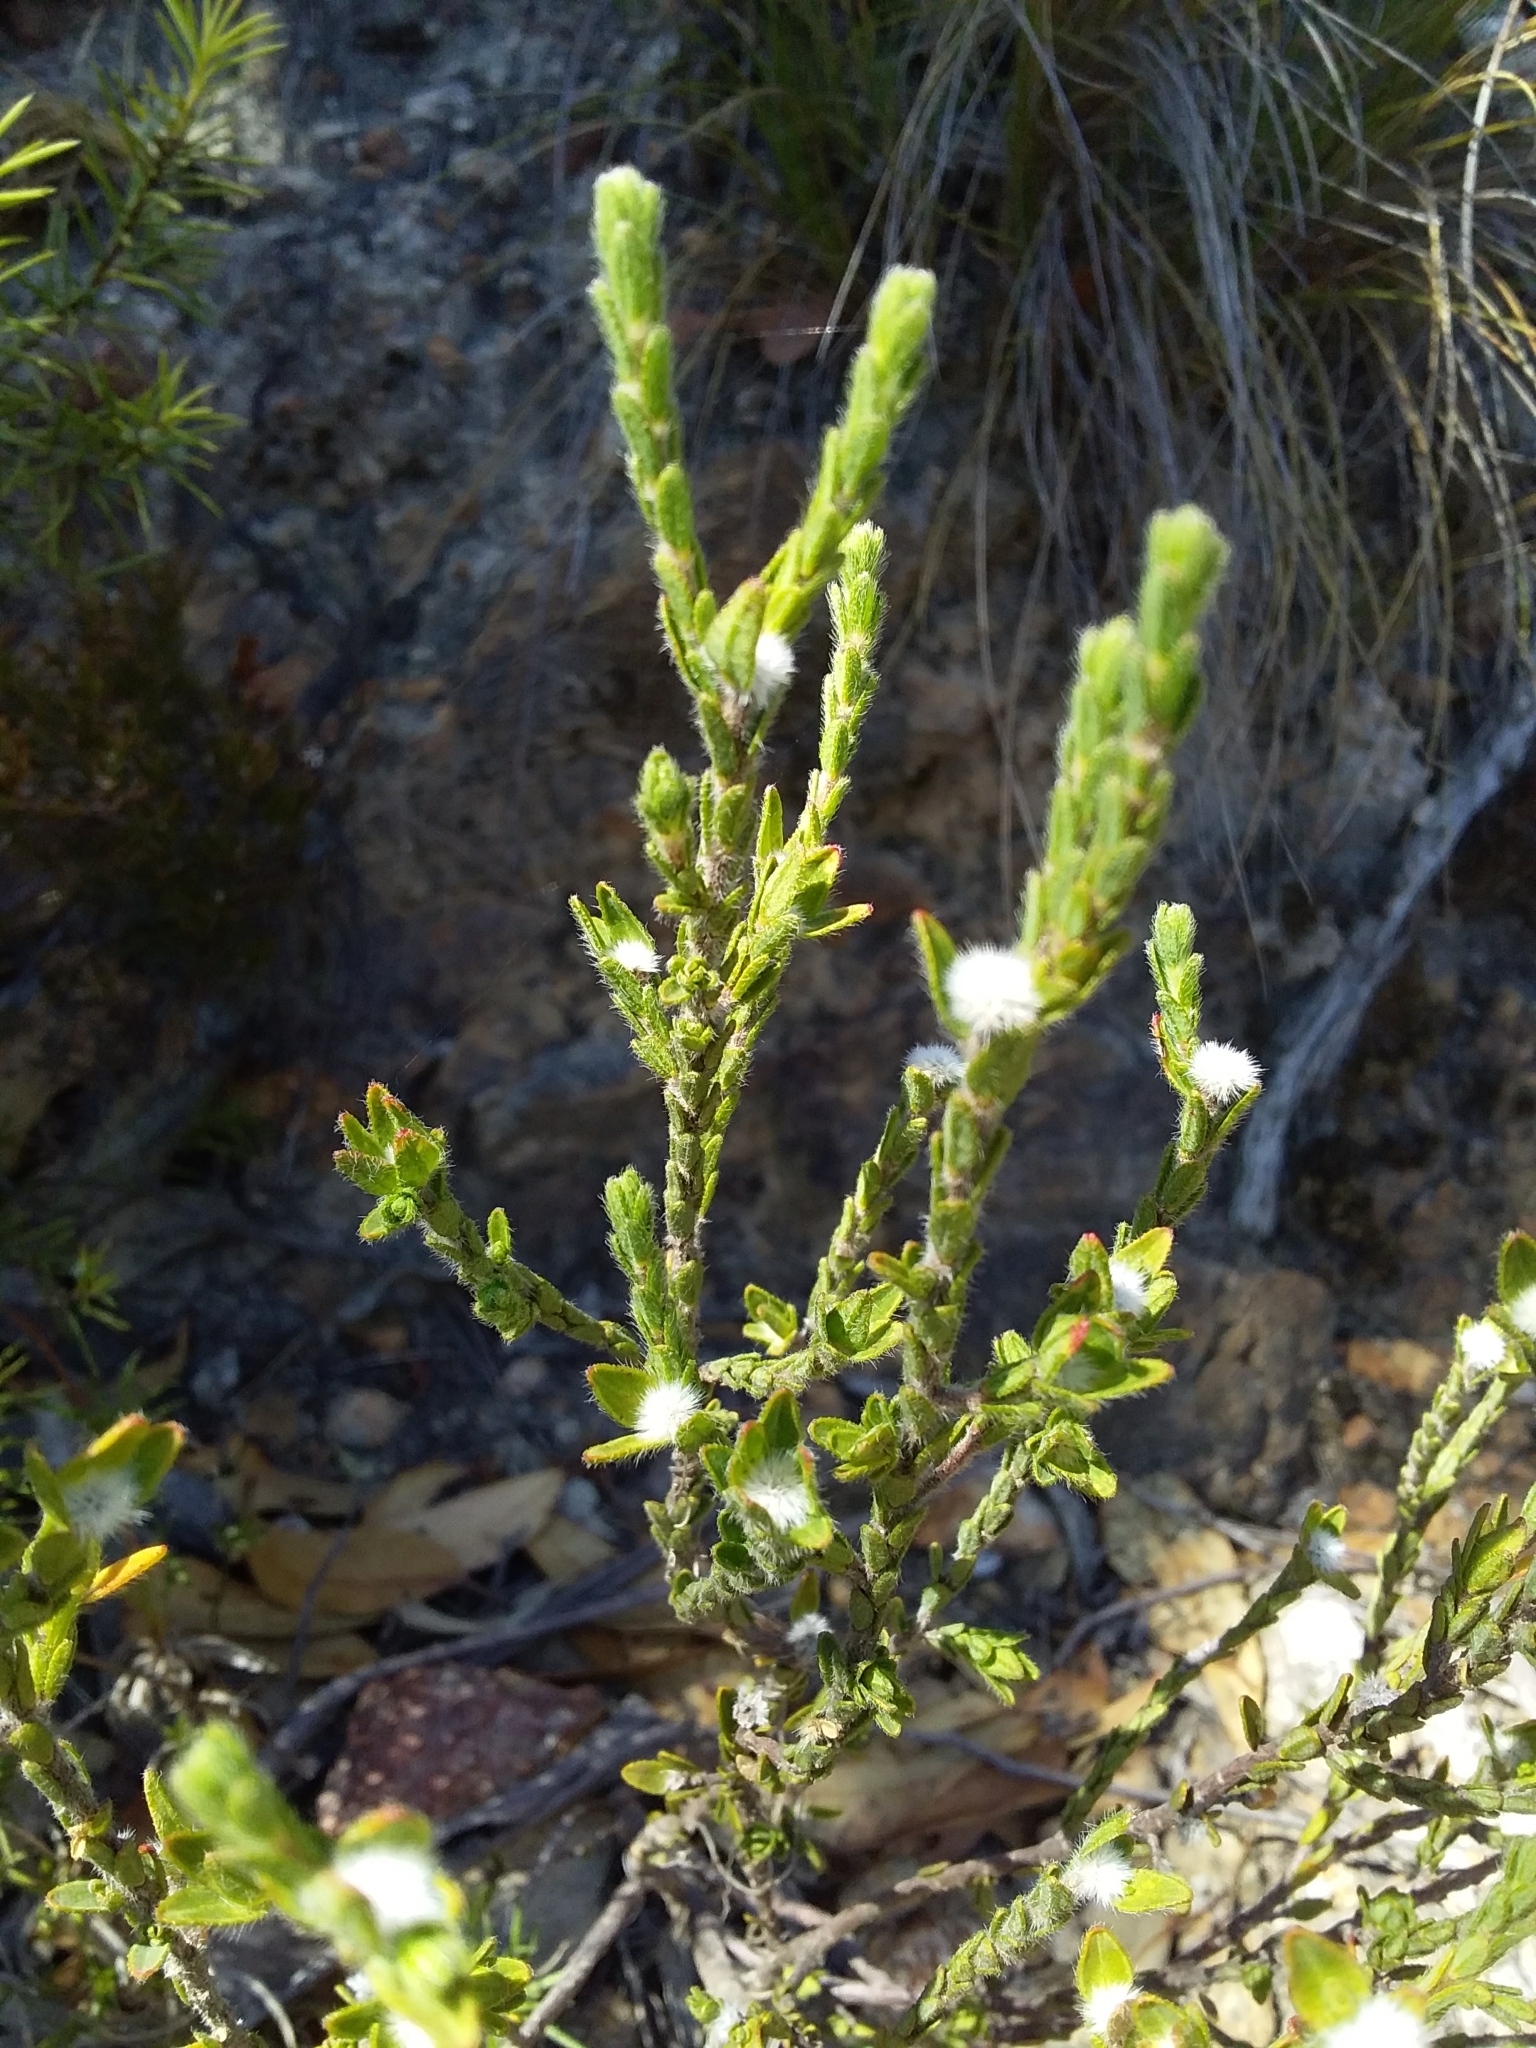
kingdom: Plantae
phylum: Tracheophyta
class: Magnoliopsida
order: Malvales
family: Thymelaeaceae
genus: Pimelea
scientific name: Pimelea phylicoides
